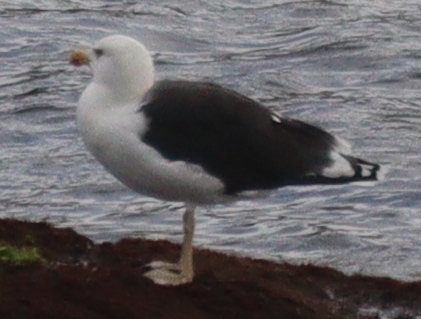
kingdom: Animalia
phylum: Chordata
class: Aves
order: Charadriiformes
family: Laridae
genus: Larus
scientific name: Larus marinus
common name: Great black-backed gull
